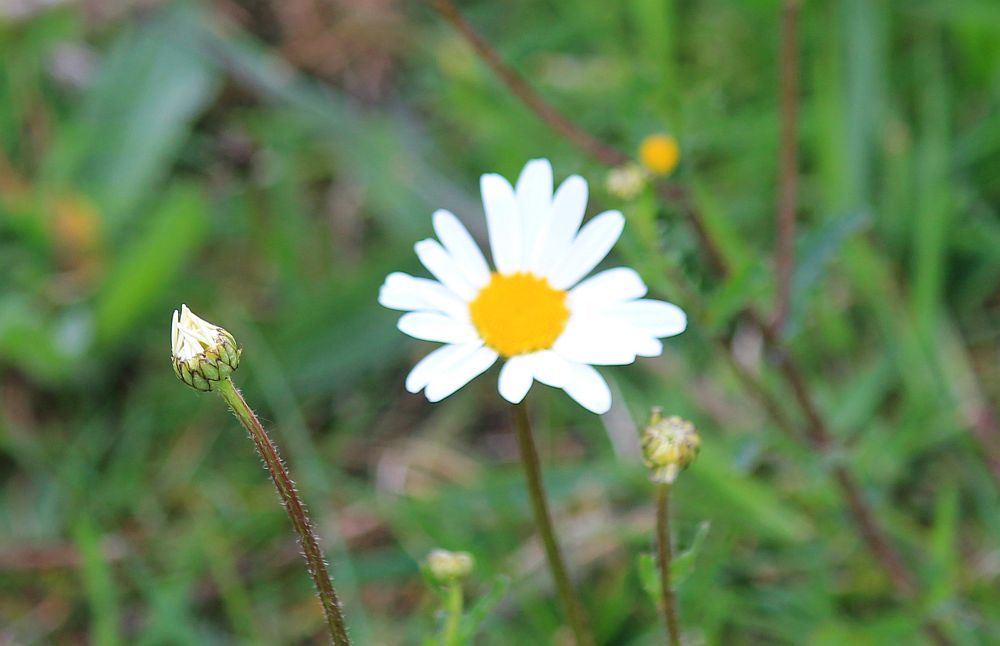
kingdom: Plantae
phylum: Tracheophyta
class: Magnoliopsida
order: Asterales
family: Asteraceae
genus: Leucanthemum
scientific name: Leucanthemum vulgare
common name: Oxeye daisy
